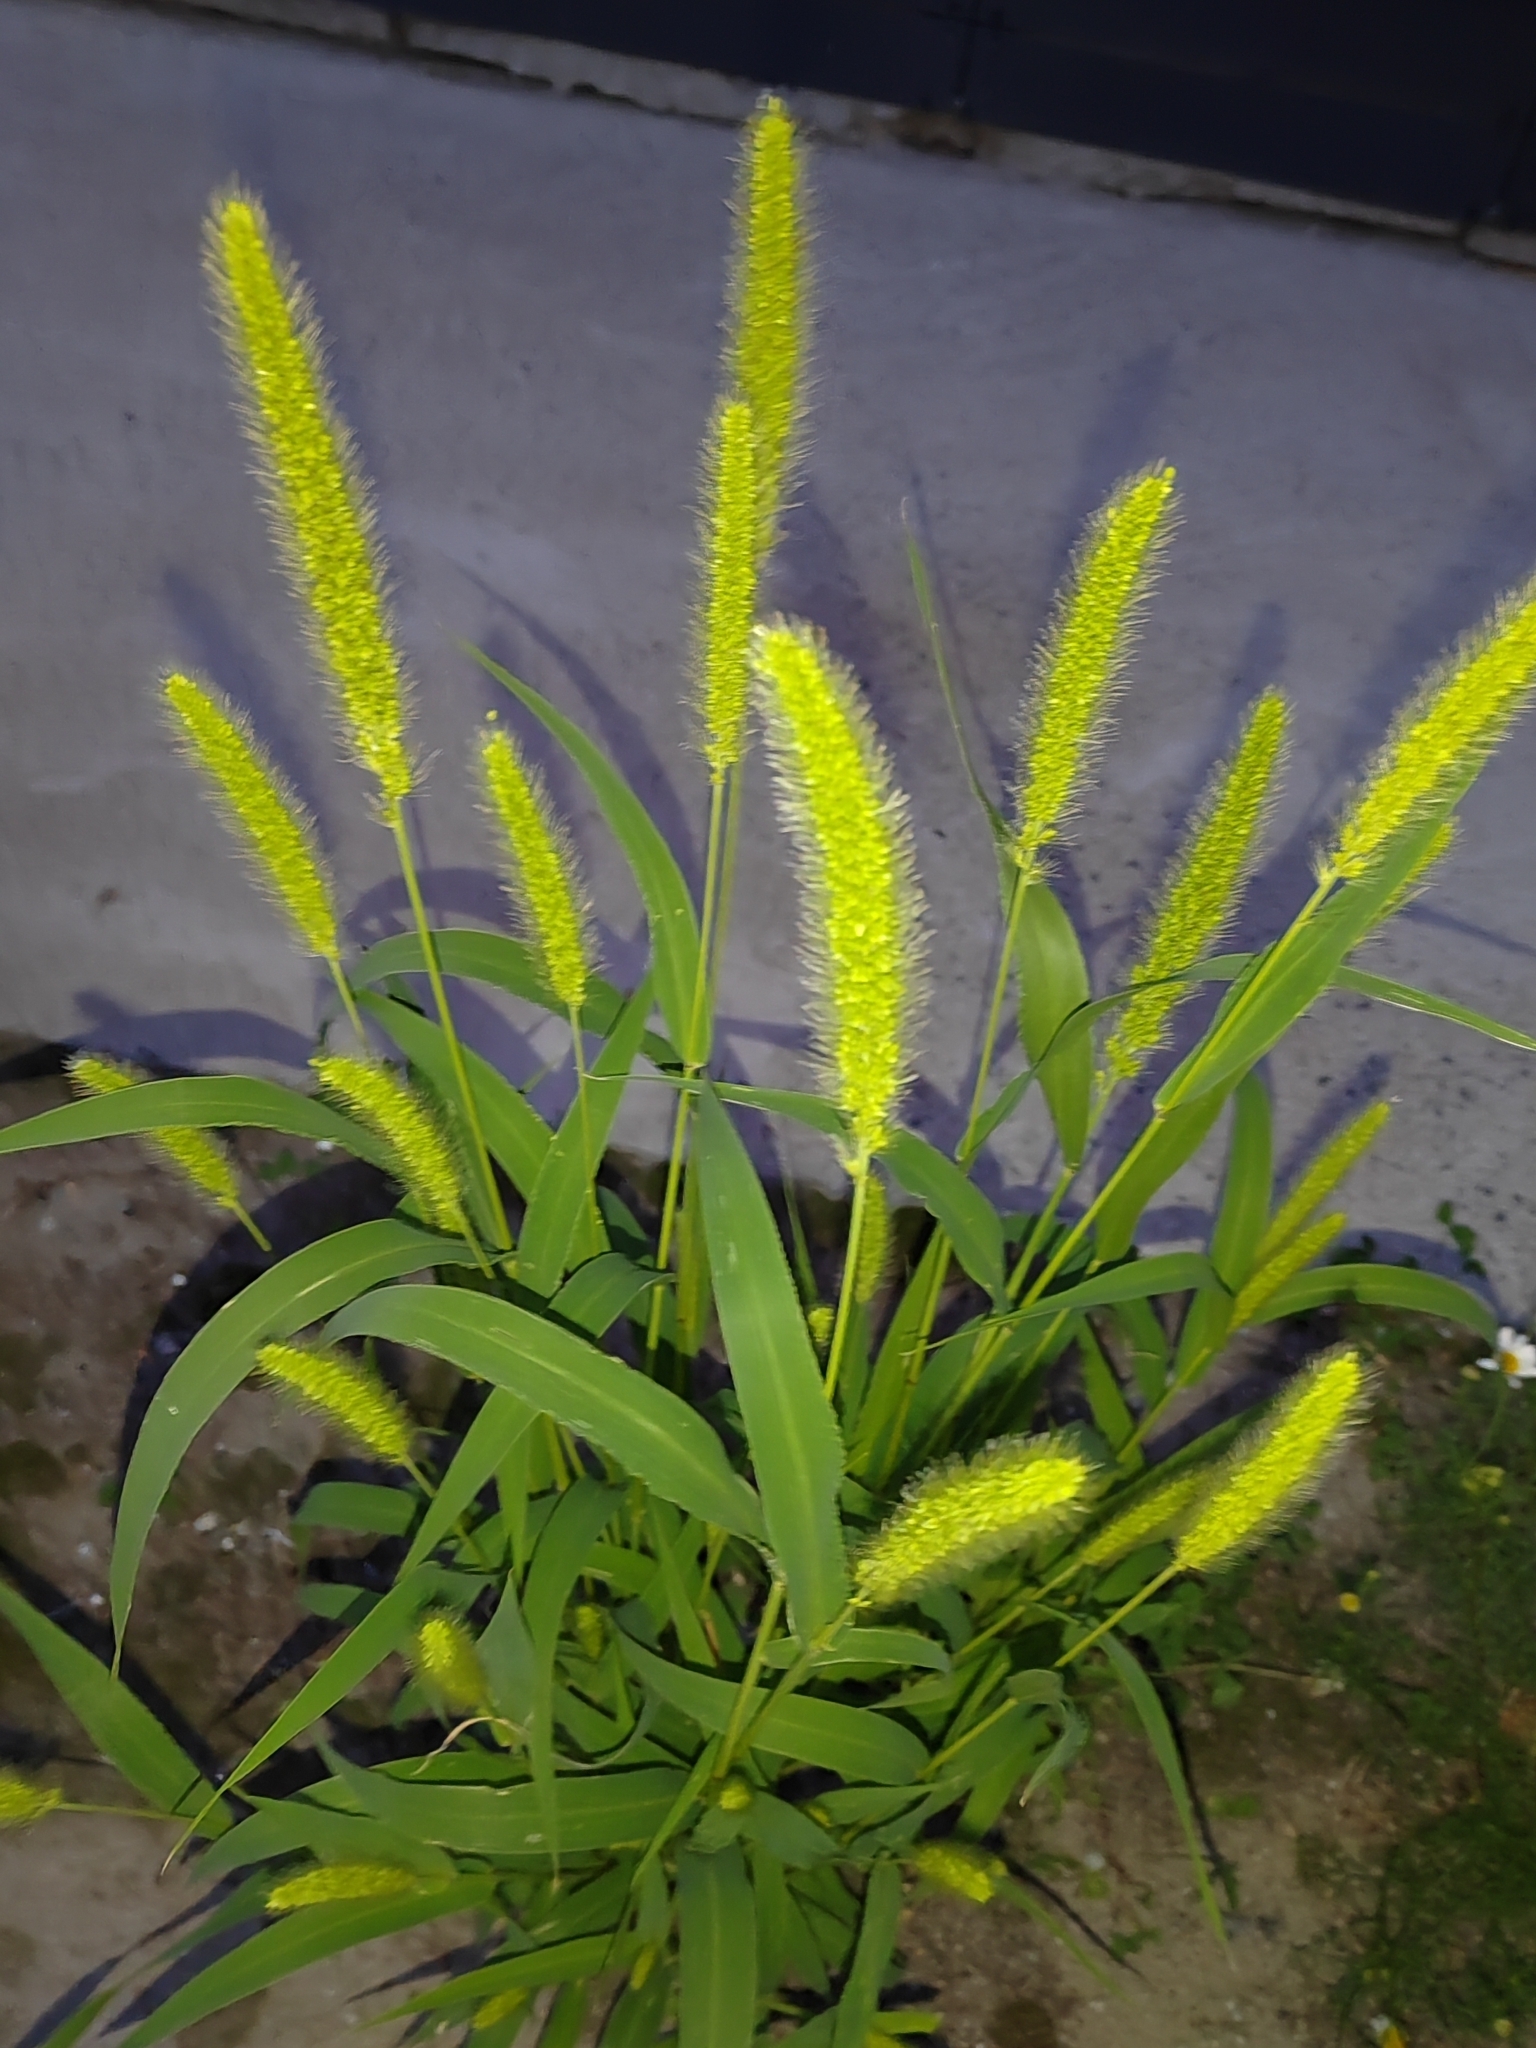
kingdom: Plantae
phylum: Tracheophyta
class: Liliopsida
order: Poales
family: Poaceae
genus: Setaria
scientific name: Setaria viridis
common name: Green bristlegrass
